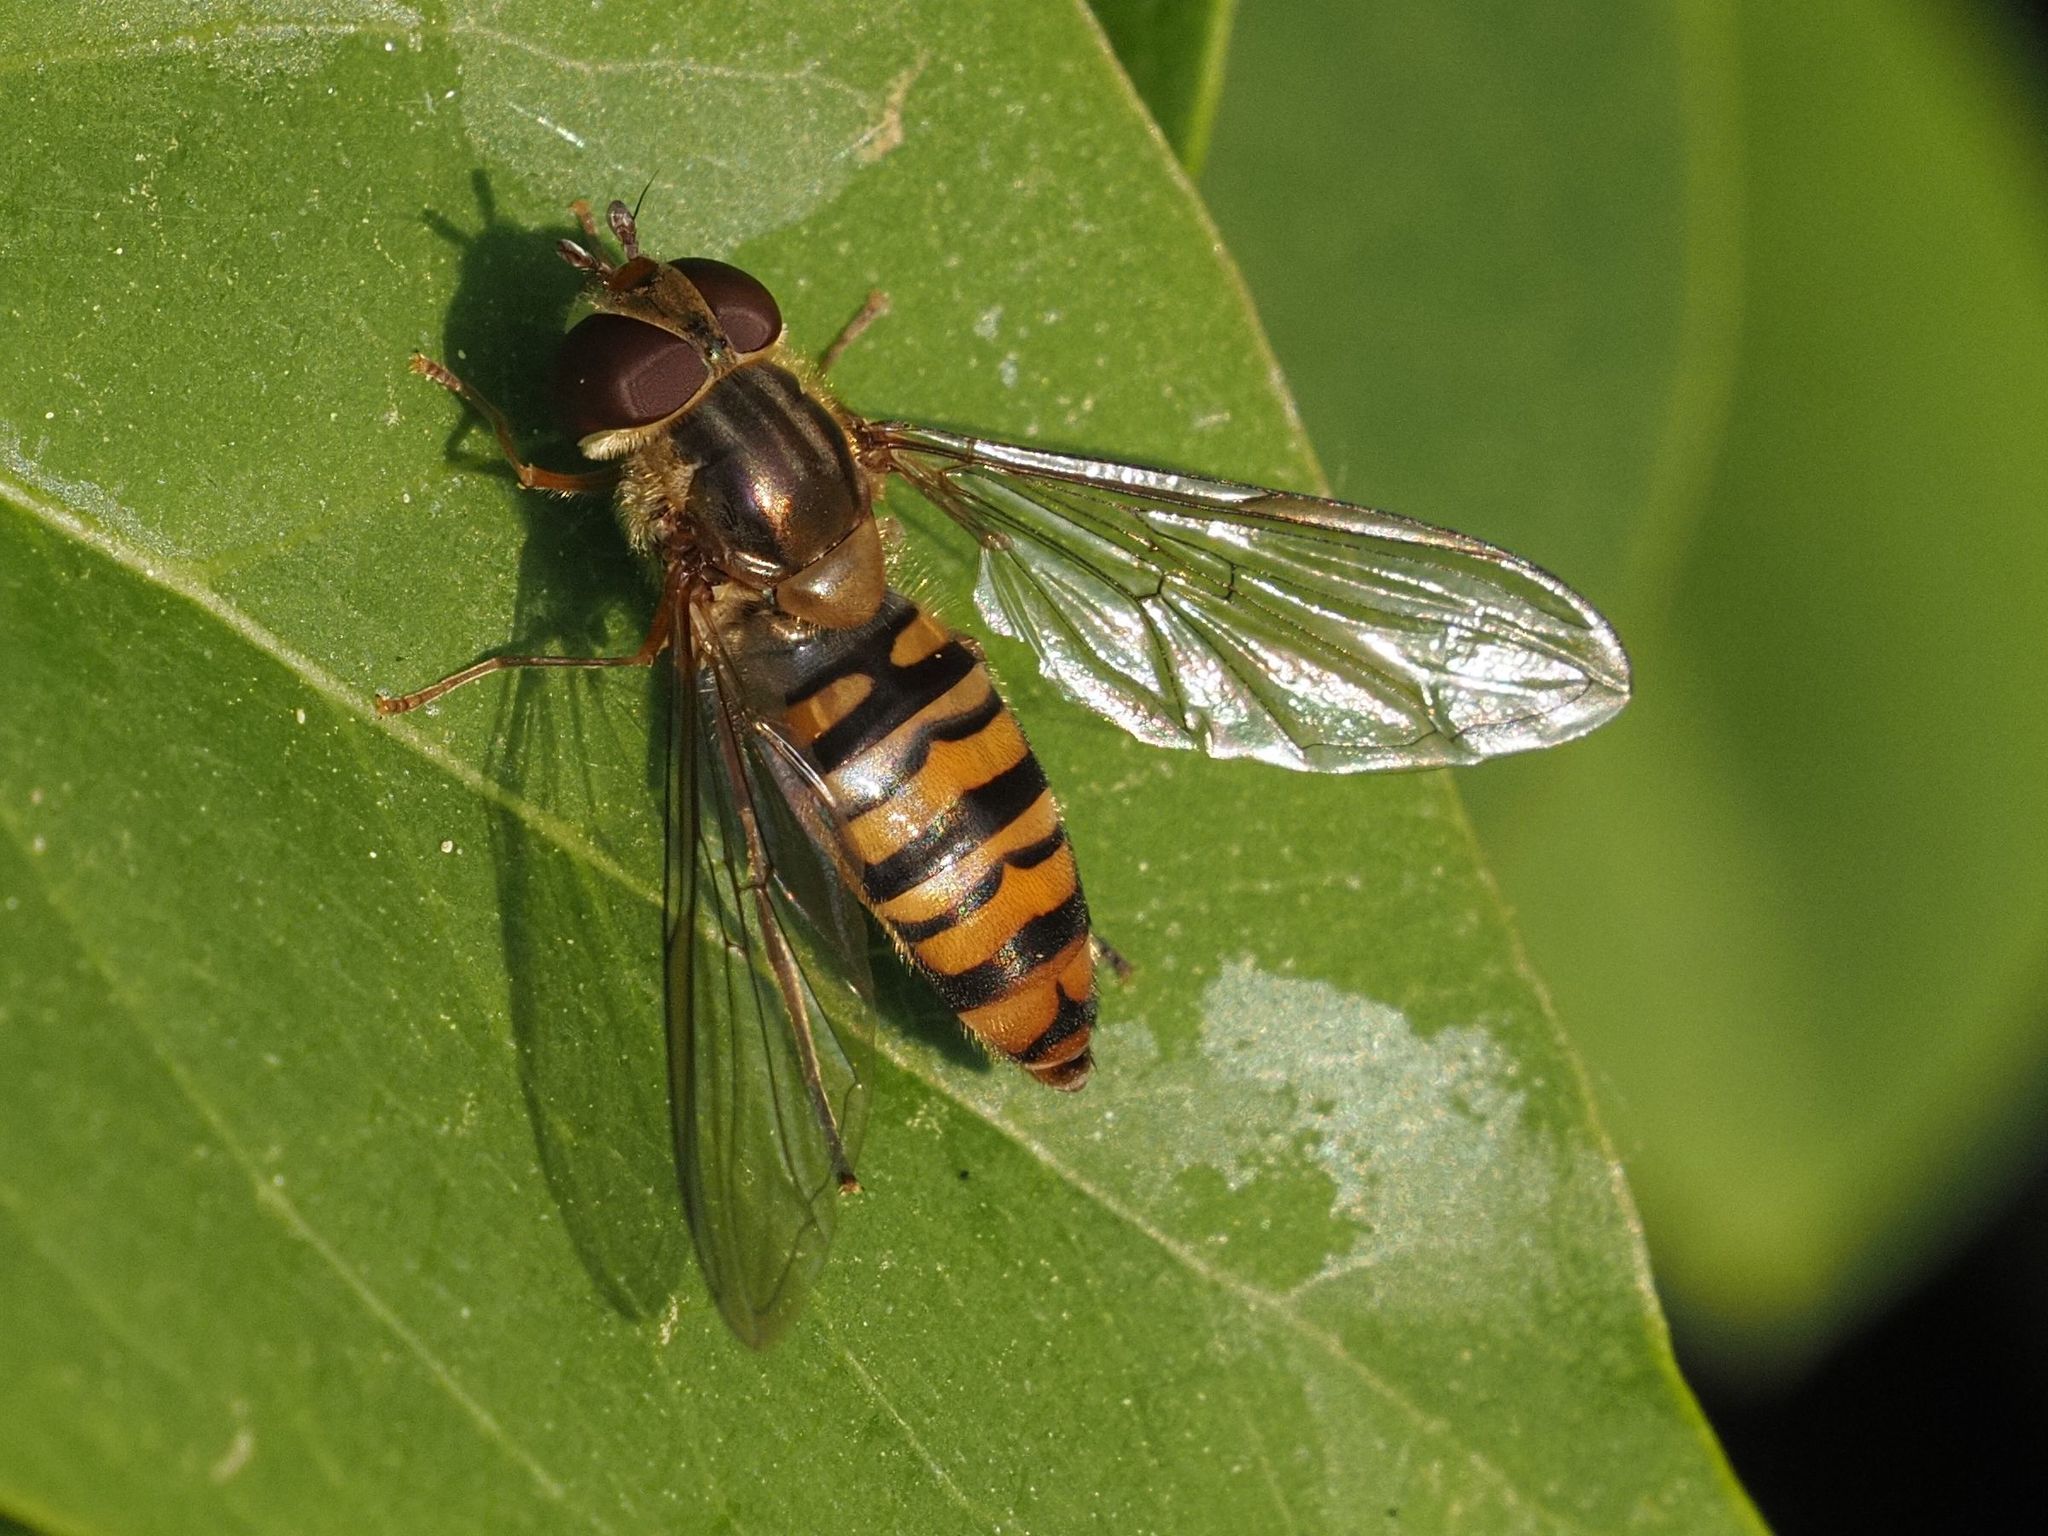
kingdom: Animalia
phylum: Arthropoda
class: Insecta
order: Diptera
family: Syrphidae
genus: Episyrphus
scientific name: Episyrphus balteatus
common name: Marmalade hoverfly
